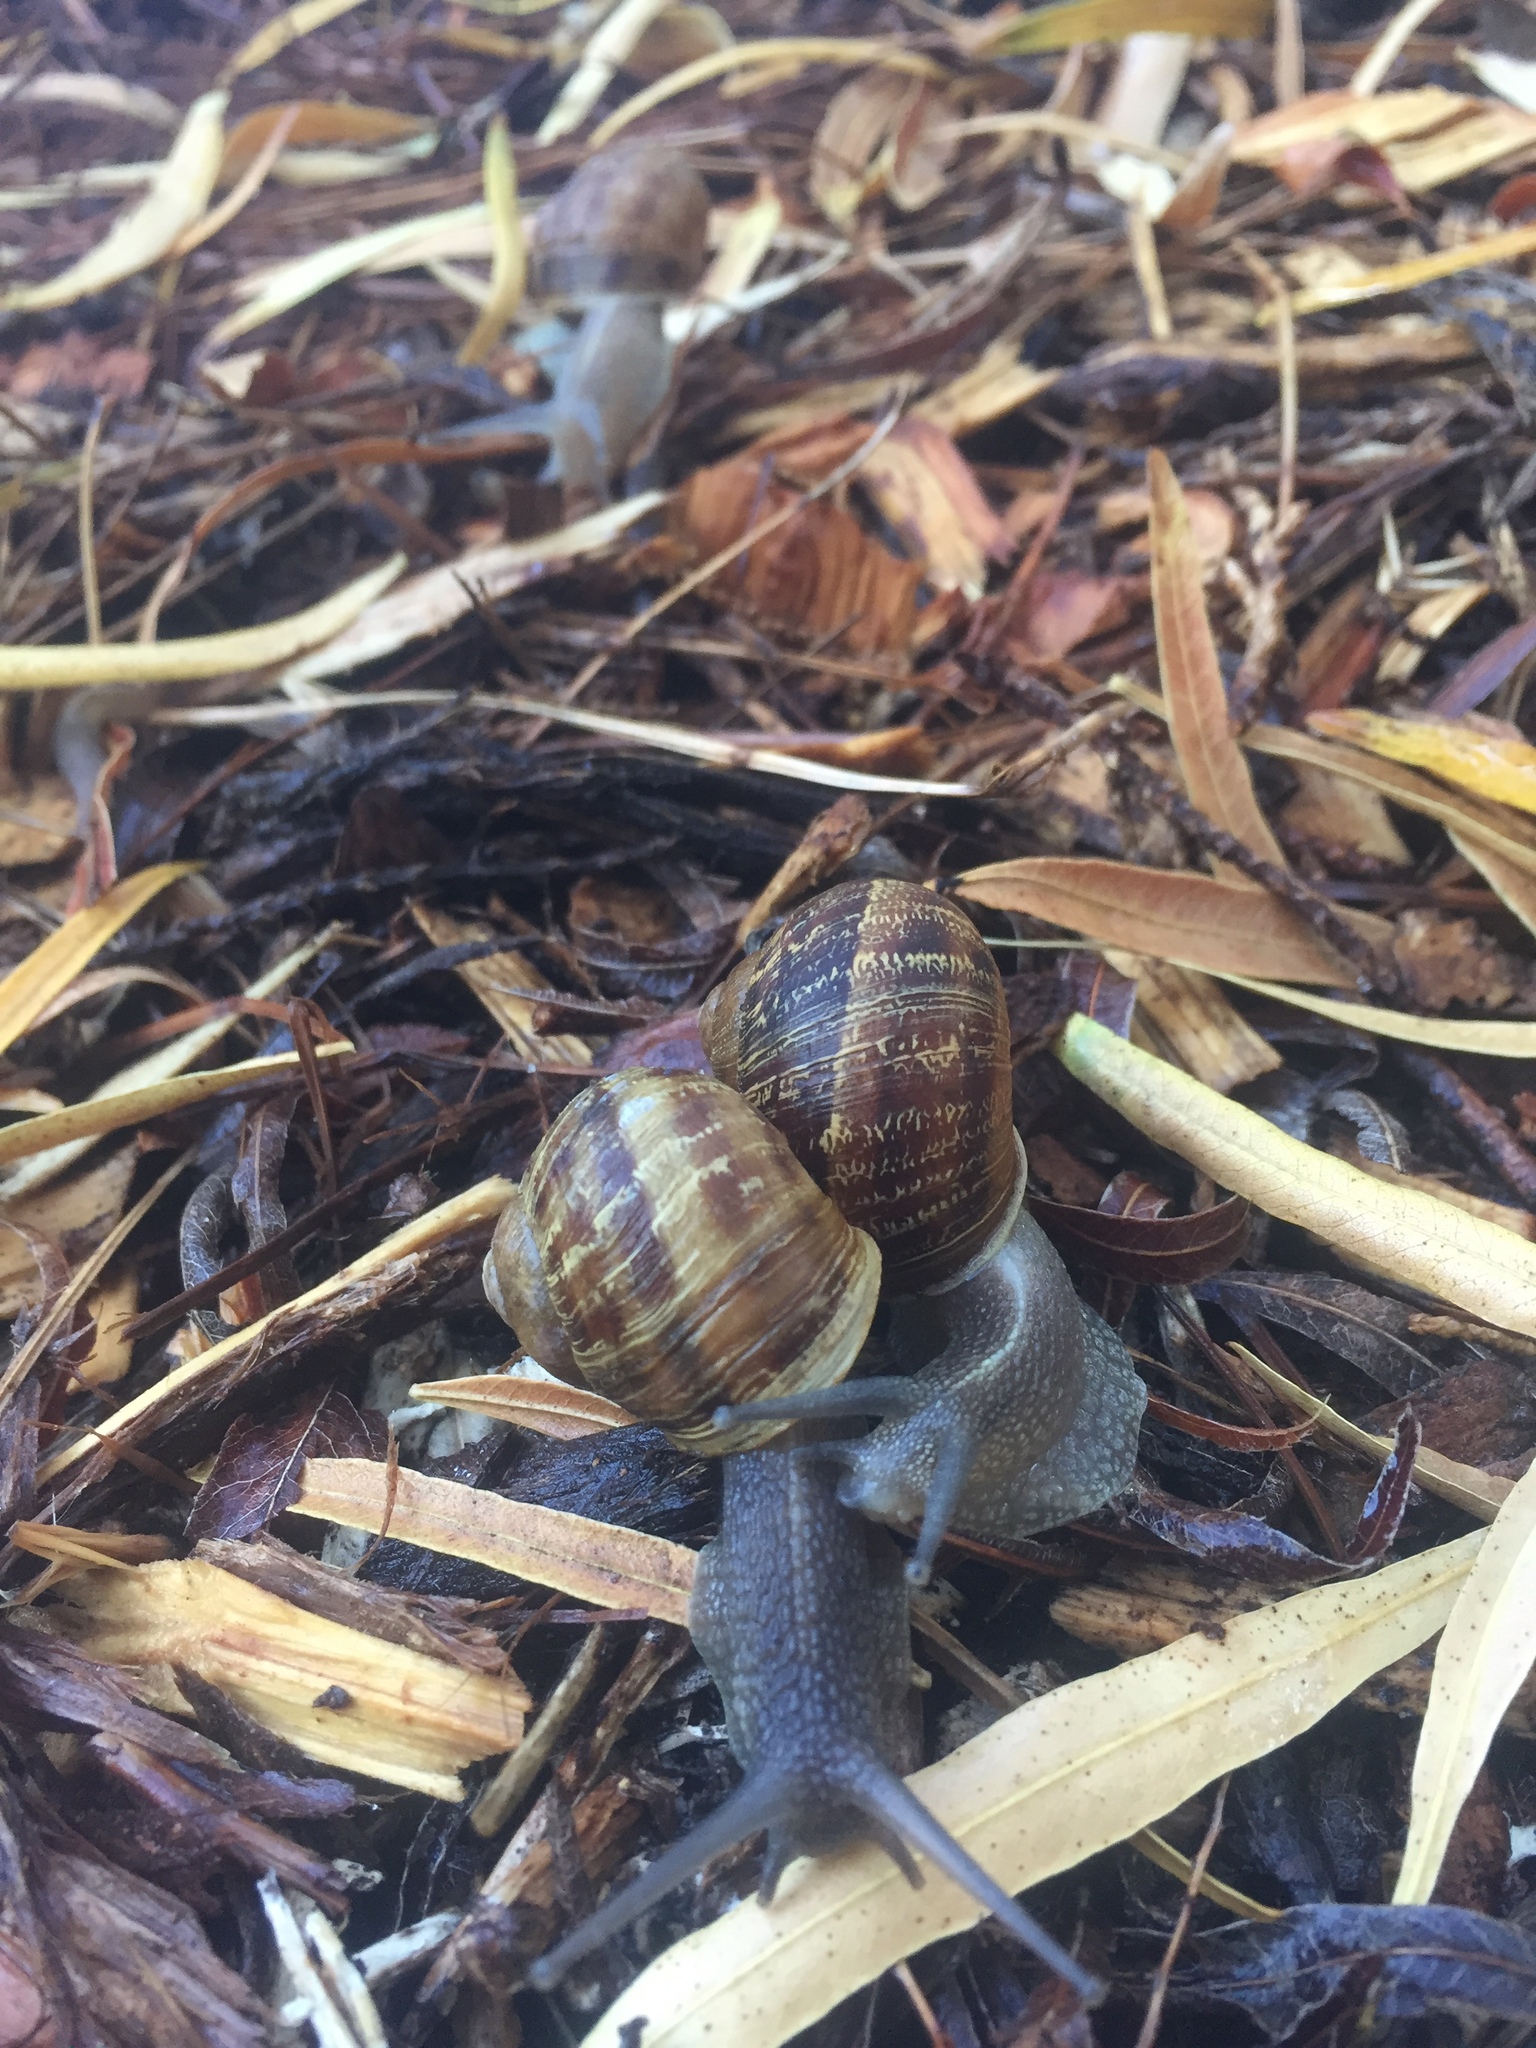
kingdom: Animalia
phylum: Mollusca
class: Gastropoda
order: Stylommatophora
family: Helicidae
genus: Cornu
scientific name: Cornu aspersum
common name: Brown garden snail
